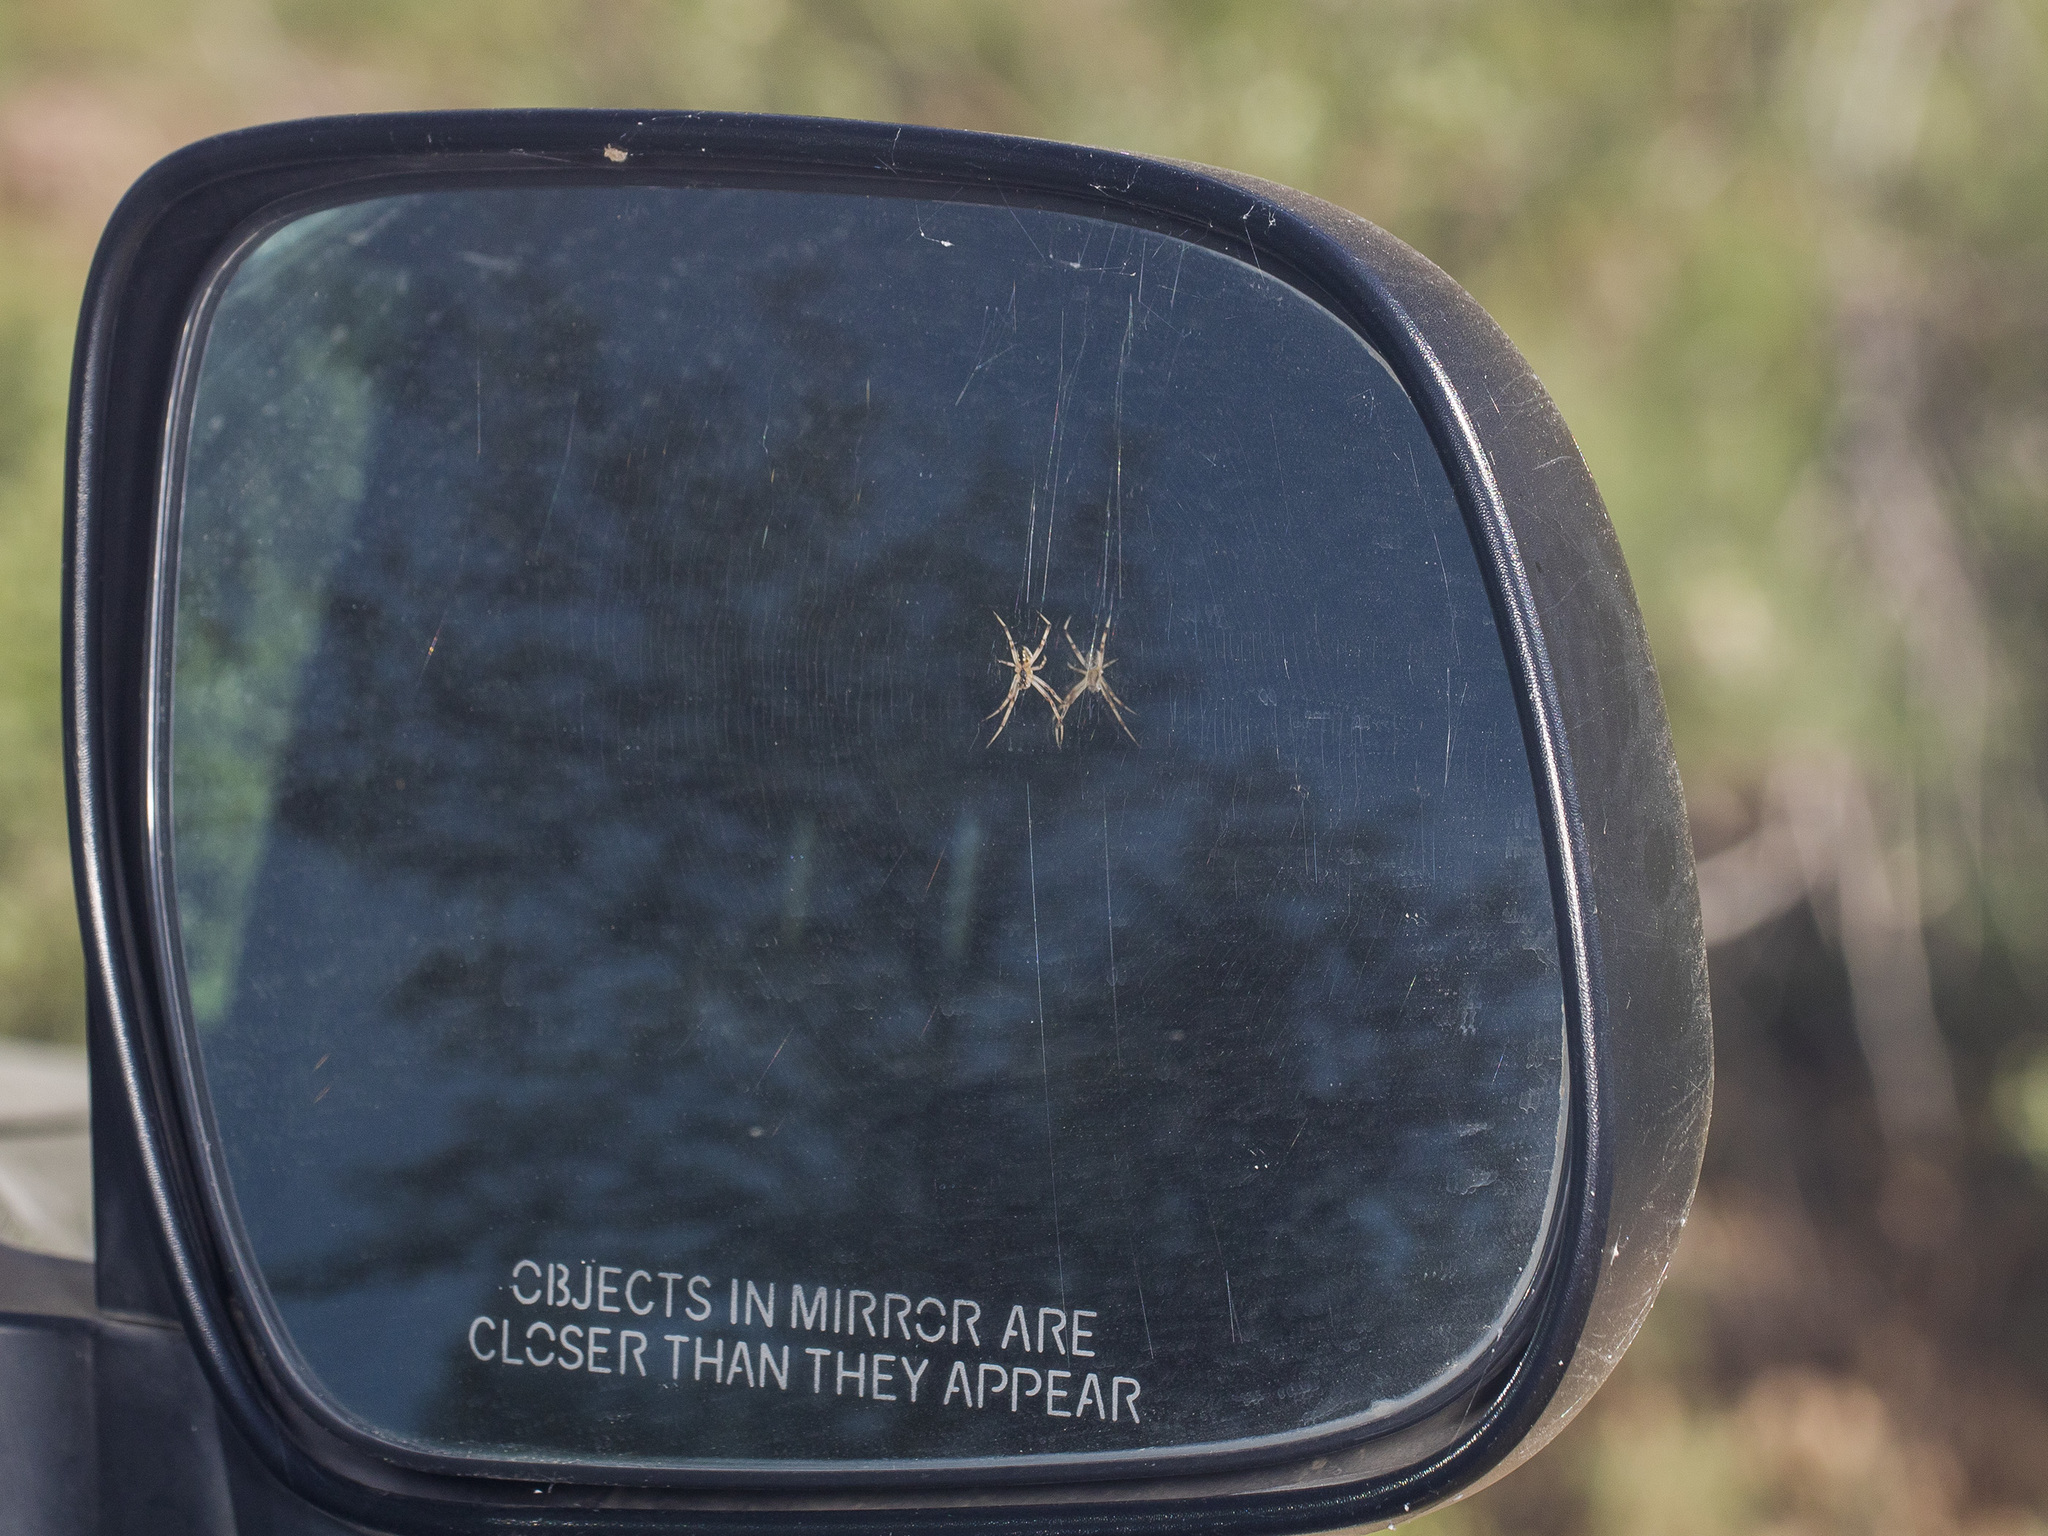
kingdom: Animalia
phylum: Arthropoda
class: Arachnida
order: Araneae
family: Araneidae
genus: Neoscona
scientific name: Neoscona adianta
